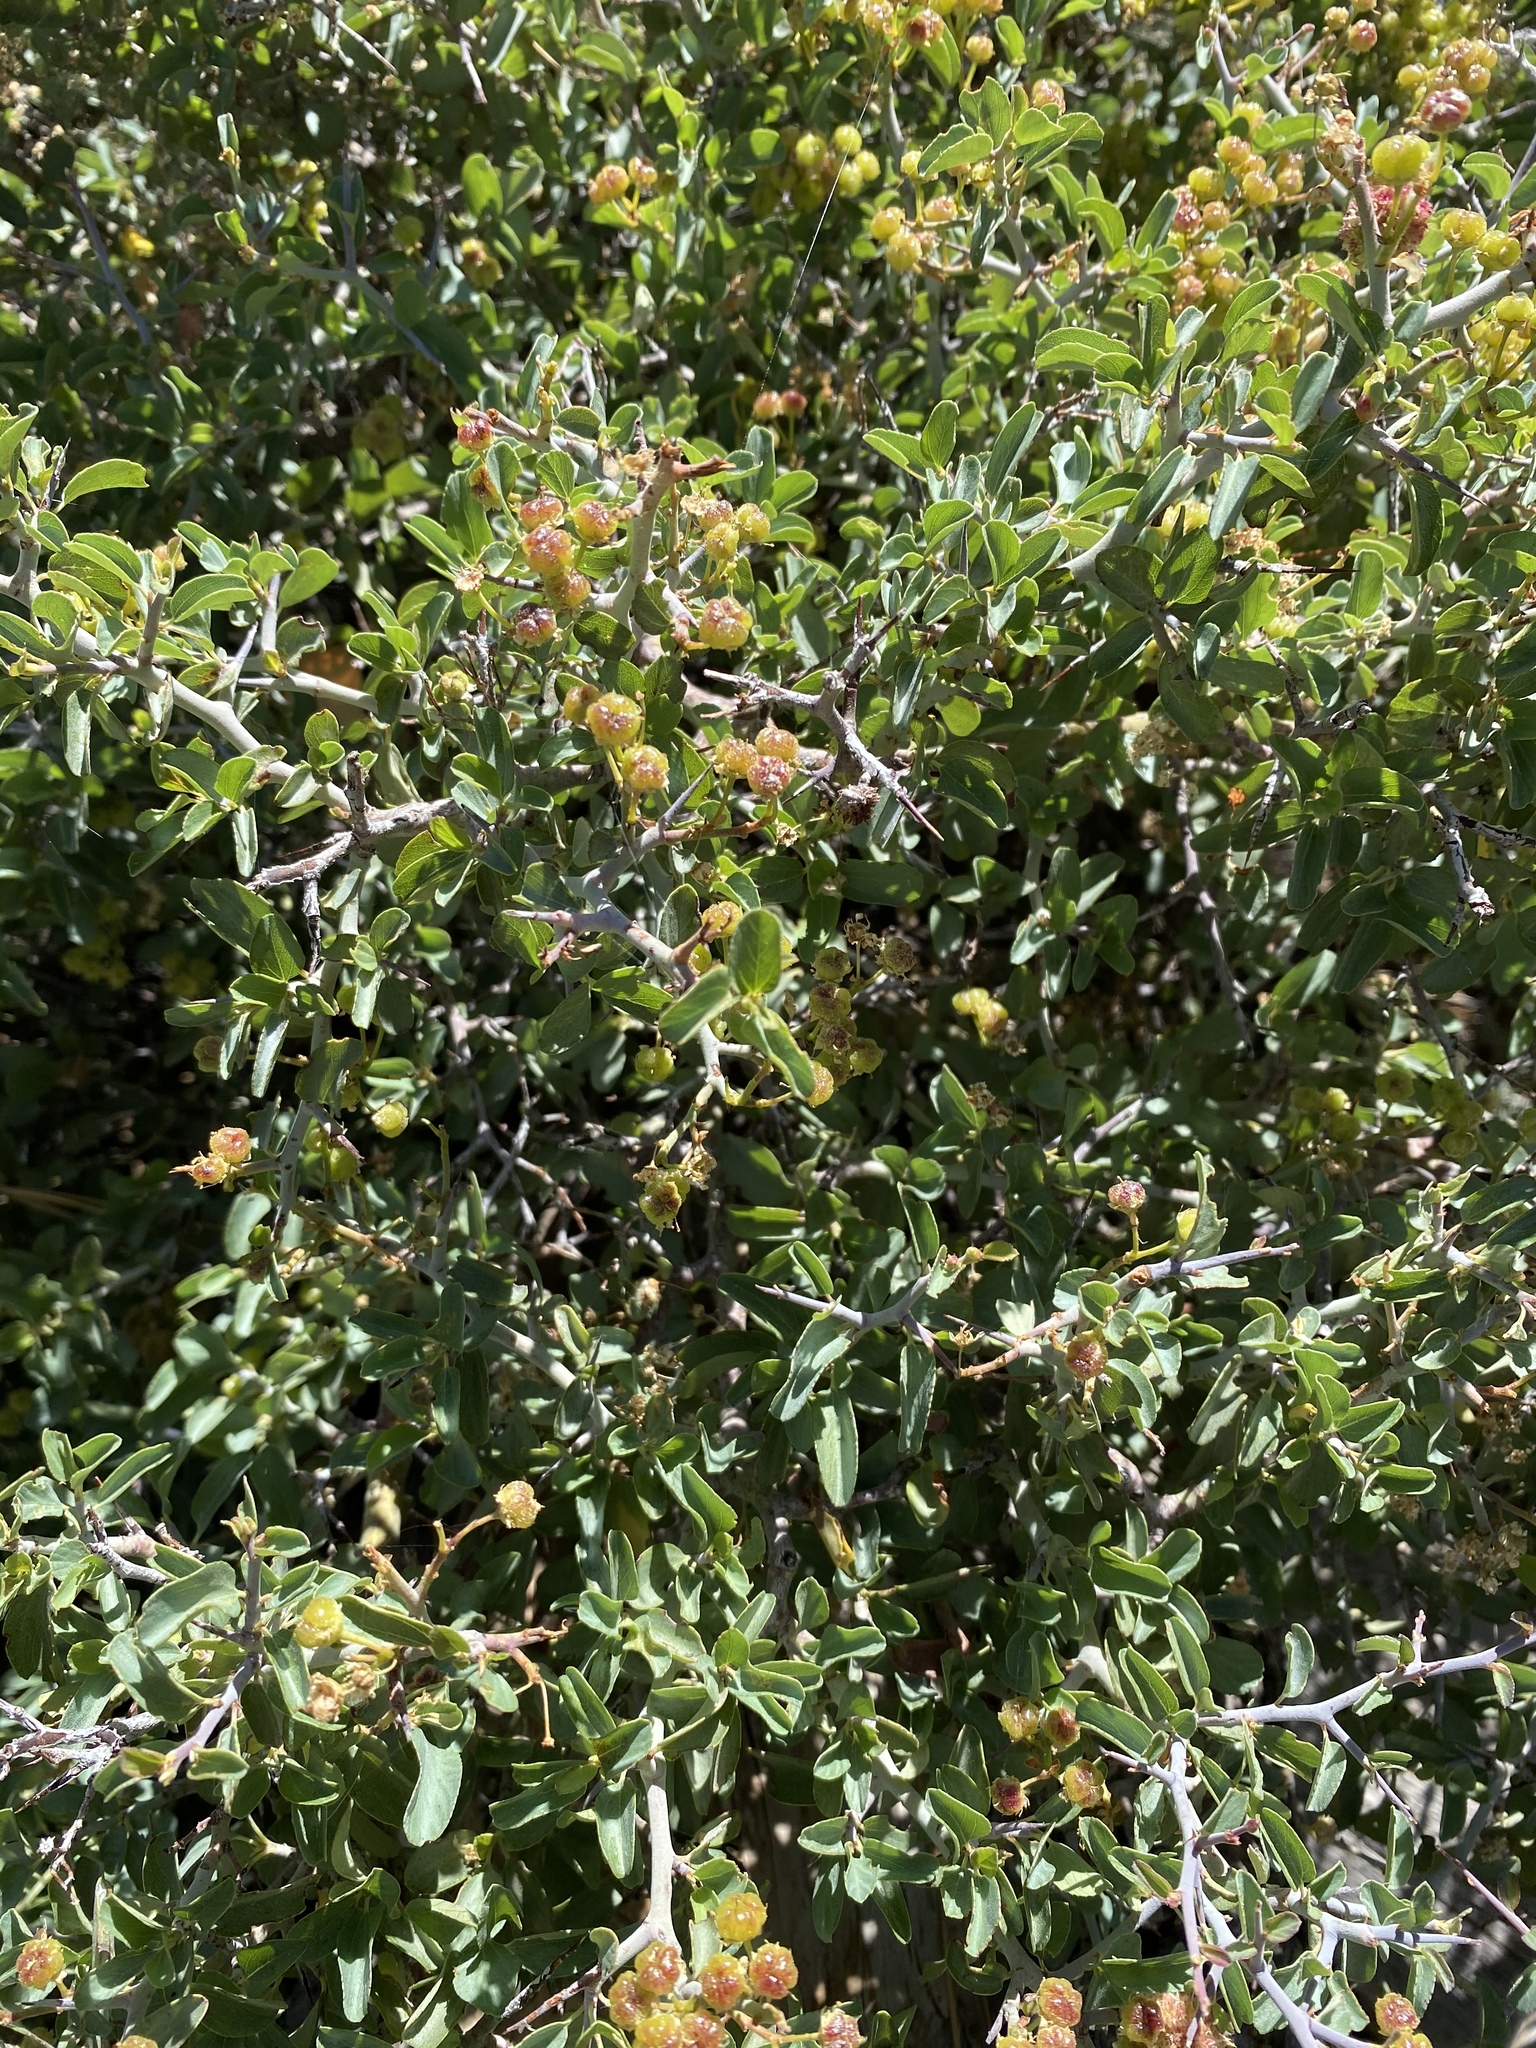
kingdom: Plantae
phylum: Tracheophyta
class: Magnoliopsida
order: Rosales
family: Rhamnaceae
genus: Ceanothus
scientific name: Ceanothus cordulatus
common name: Mountain whitethorn
